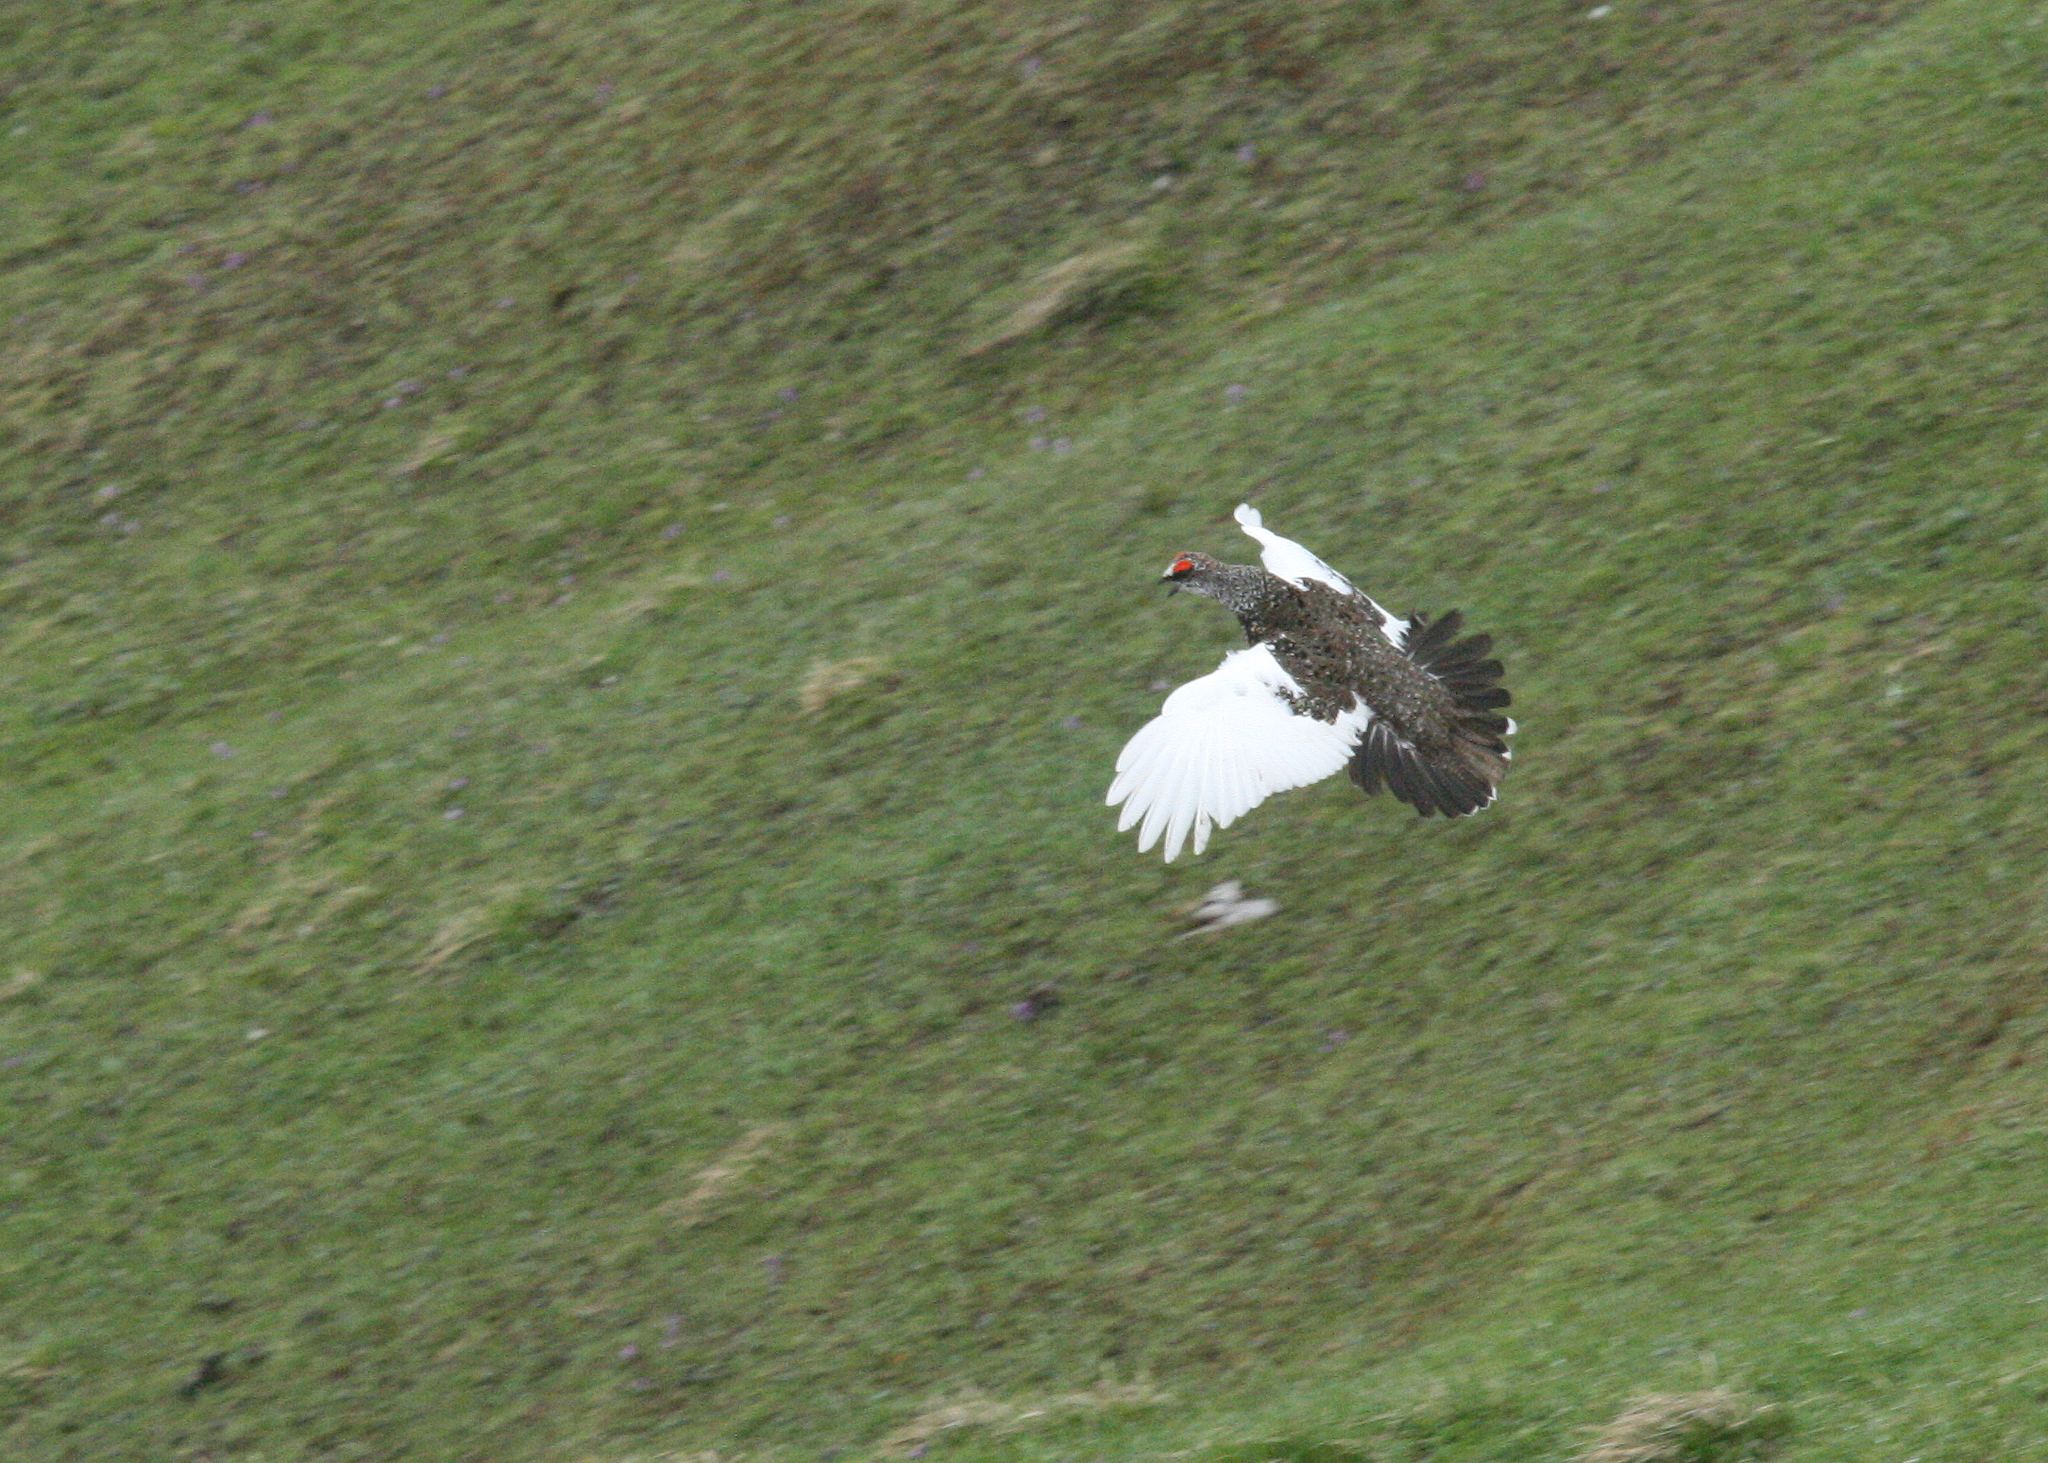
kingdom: Animalia
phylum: Chordata
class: Aves
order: Galliformes
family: Phasianidae
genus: Lagopus
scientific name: Lagopus muta
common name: Rock ptarmigan
